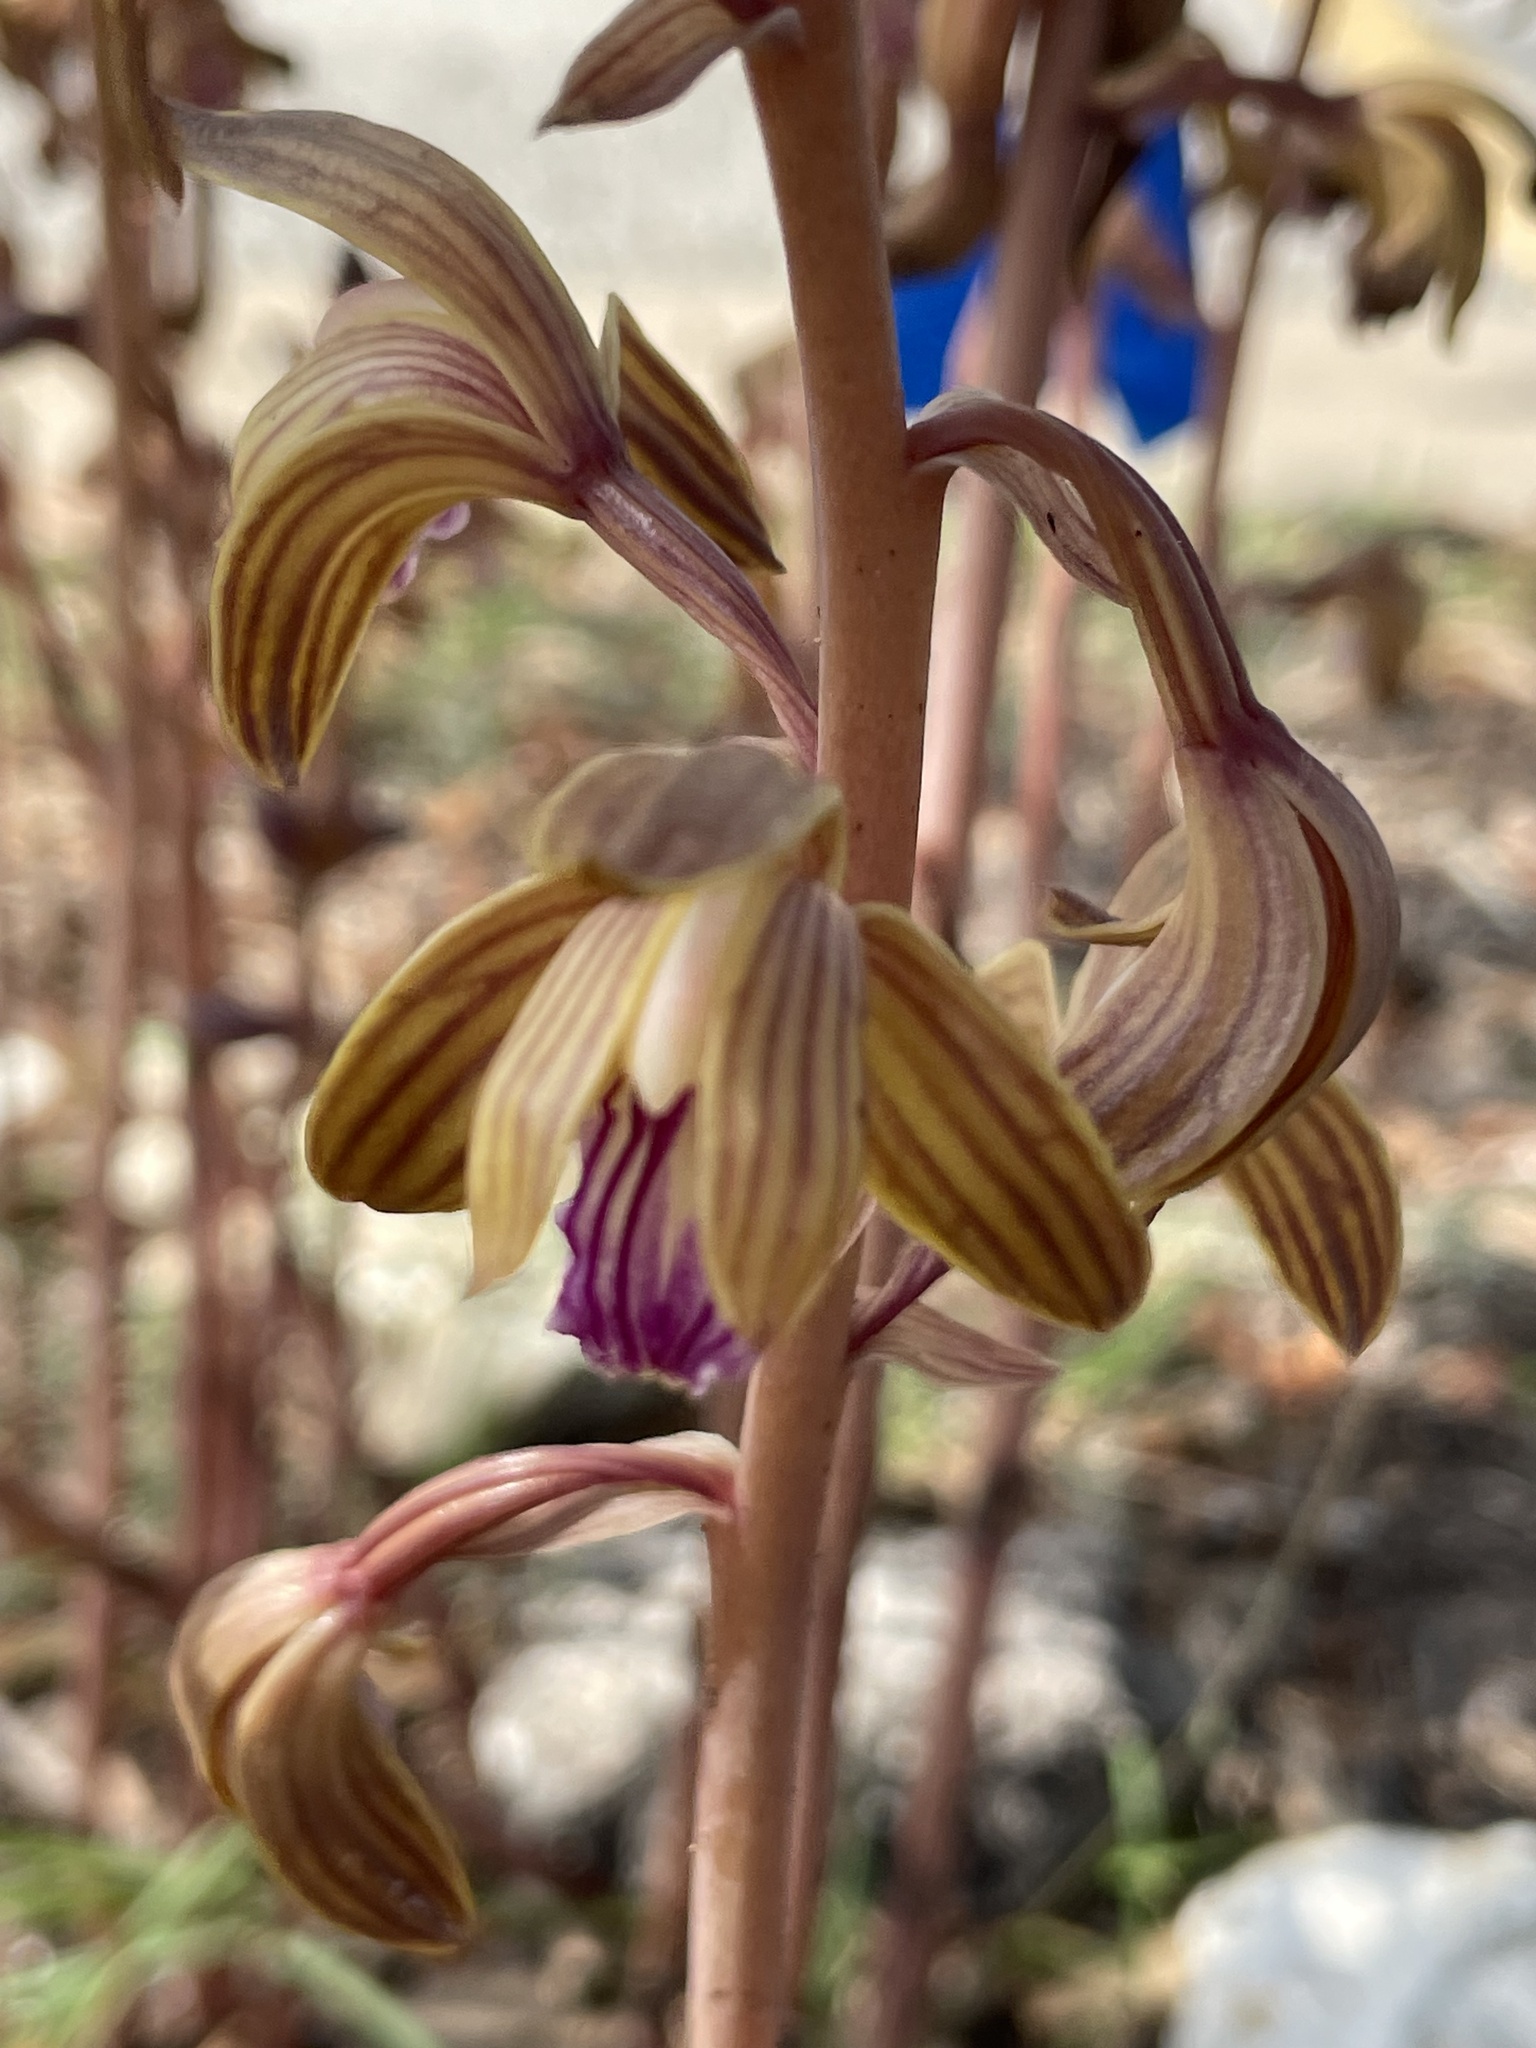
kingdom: Plantae
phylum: Tracheophyta
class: Liliopsida
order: Asparagales
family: Orchidaceae
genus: Bletia
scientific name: Bletia spicata
